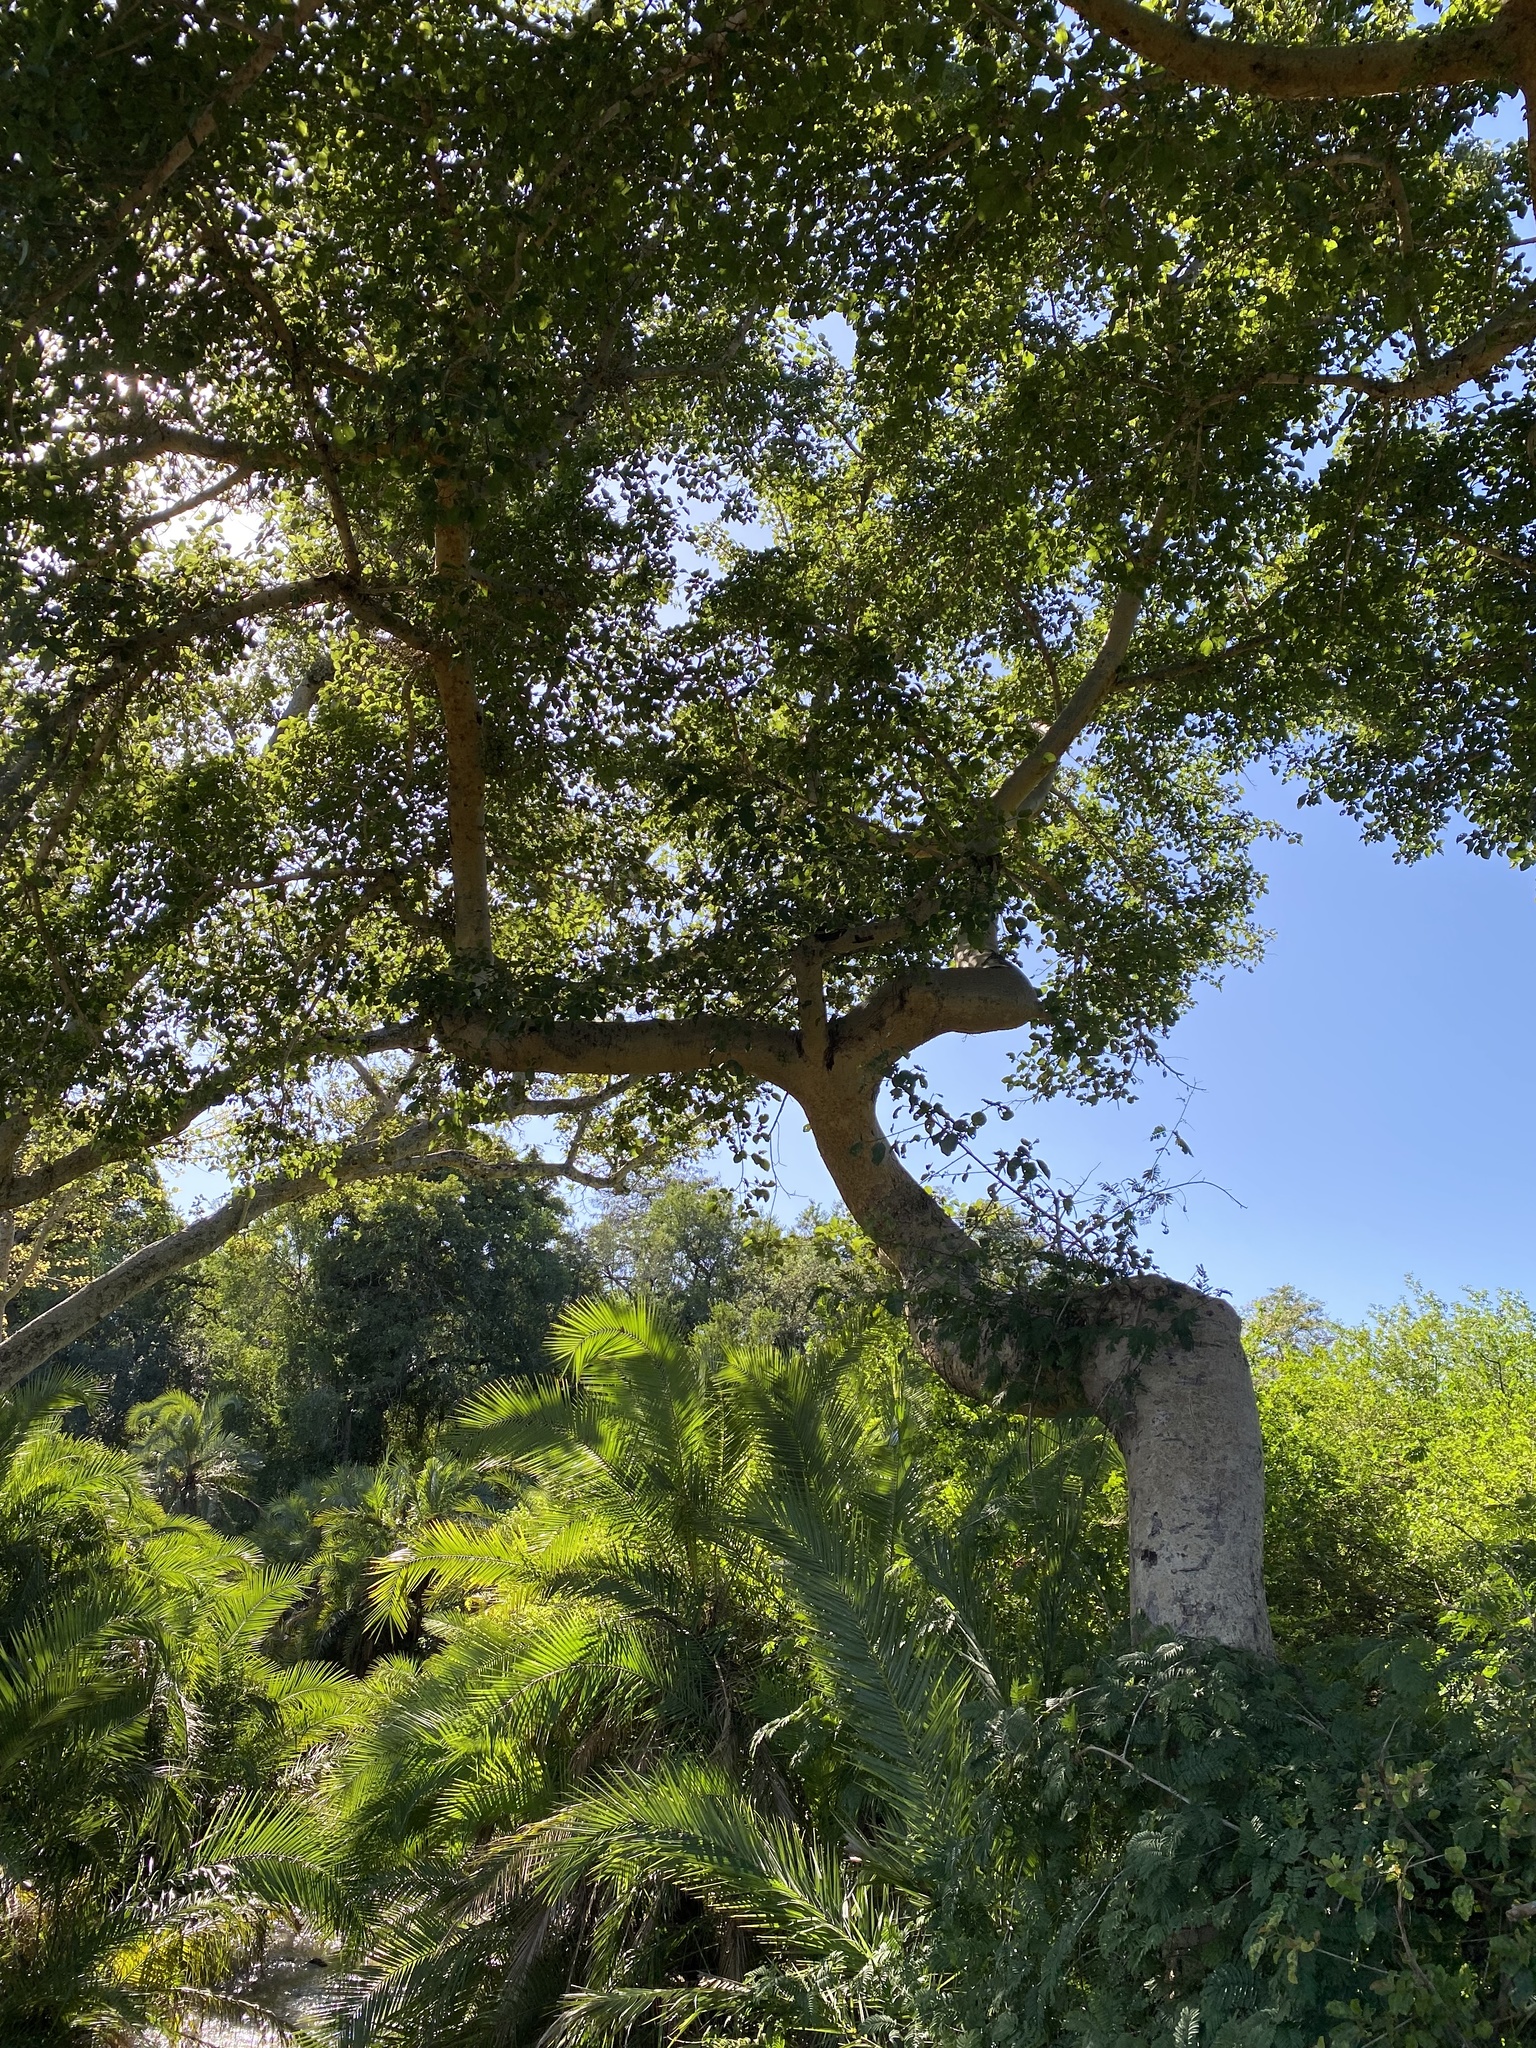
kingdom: Plantae
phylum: Tracheophyta
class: Magnoliopsida
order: Rosales
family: Moraceae
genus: Ficus
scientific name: Ficus sycomorus
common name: Sycomore
